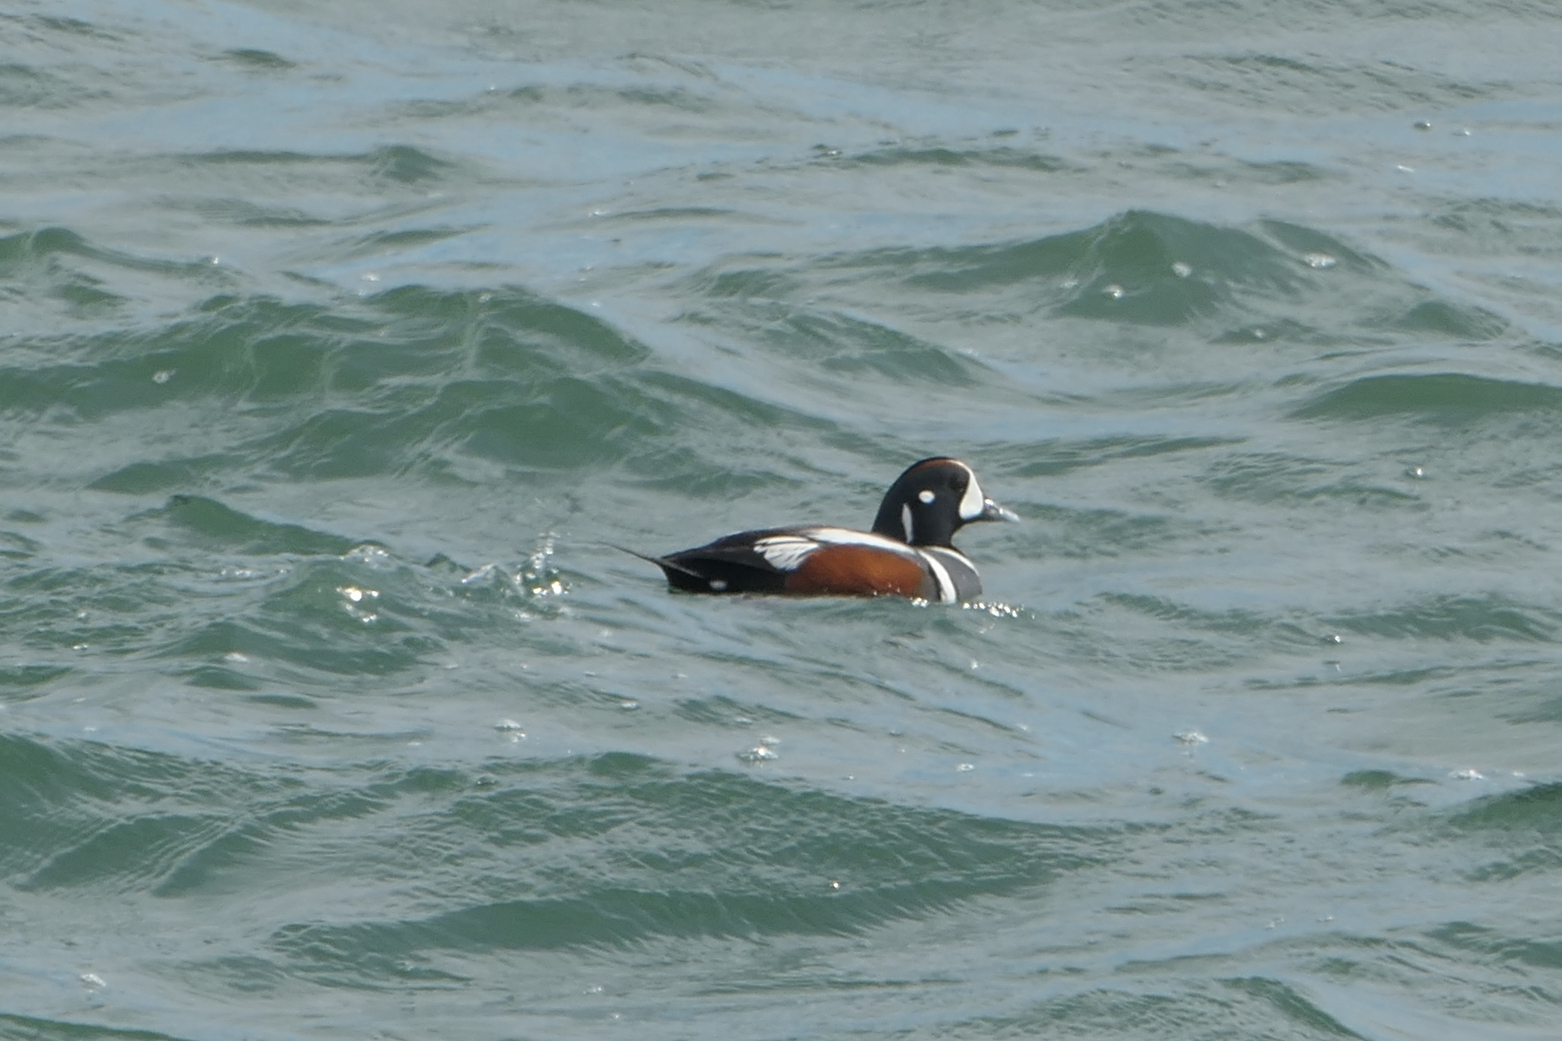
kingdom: Animalia
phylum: Chordata
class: Aves
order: Anseriformes
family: Anatidae
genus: Histrionicus
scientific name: Histrionicus histrionicus
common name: Harlequin duck
